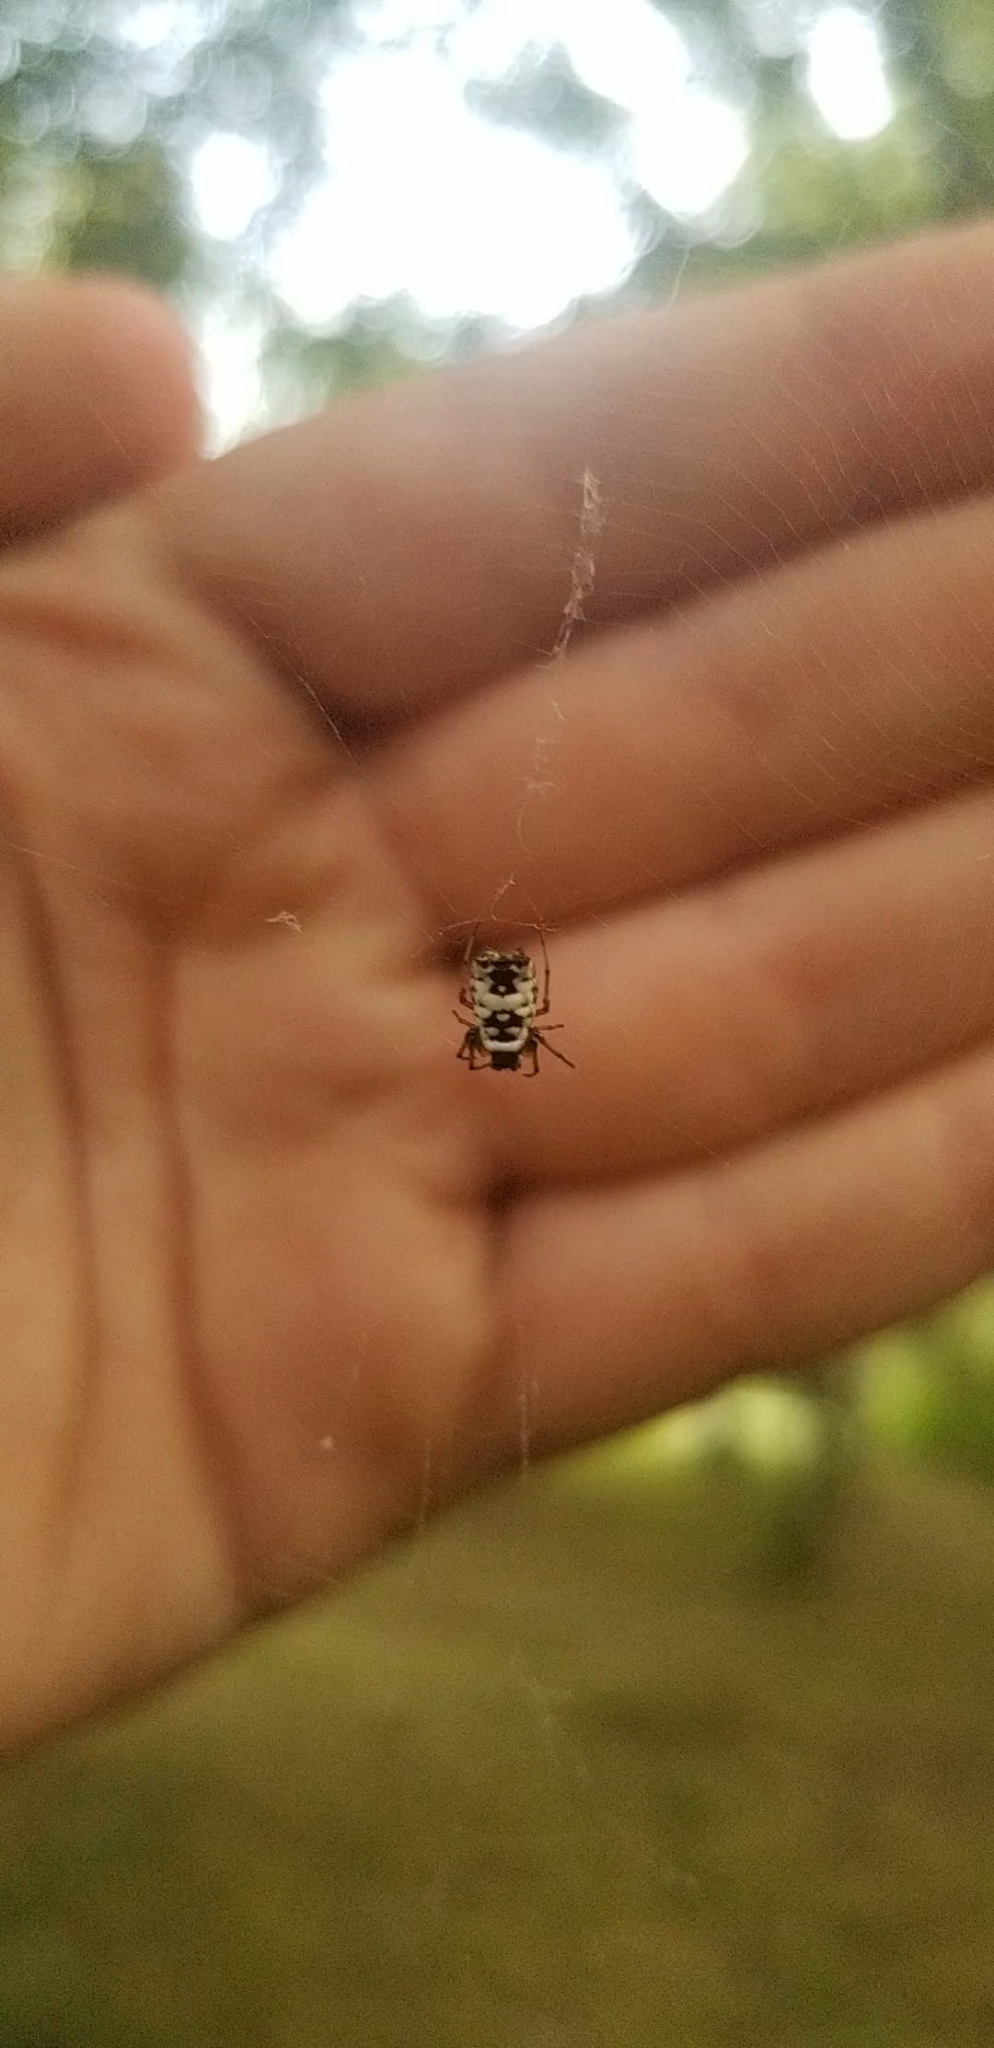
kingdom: Animalia
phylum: Arthropoda
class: Arachnida
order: Araneae
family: Araneidae
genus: Micrathena
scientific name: Micrathena mitrata
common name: Orb weavers
